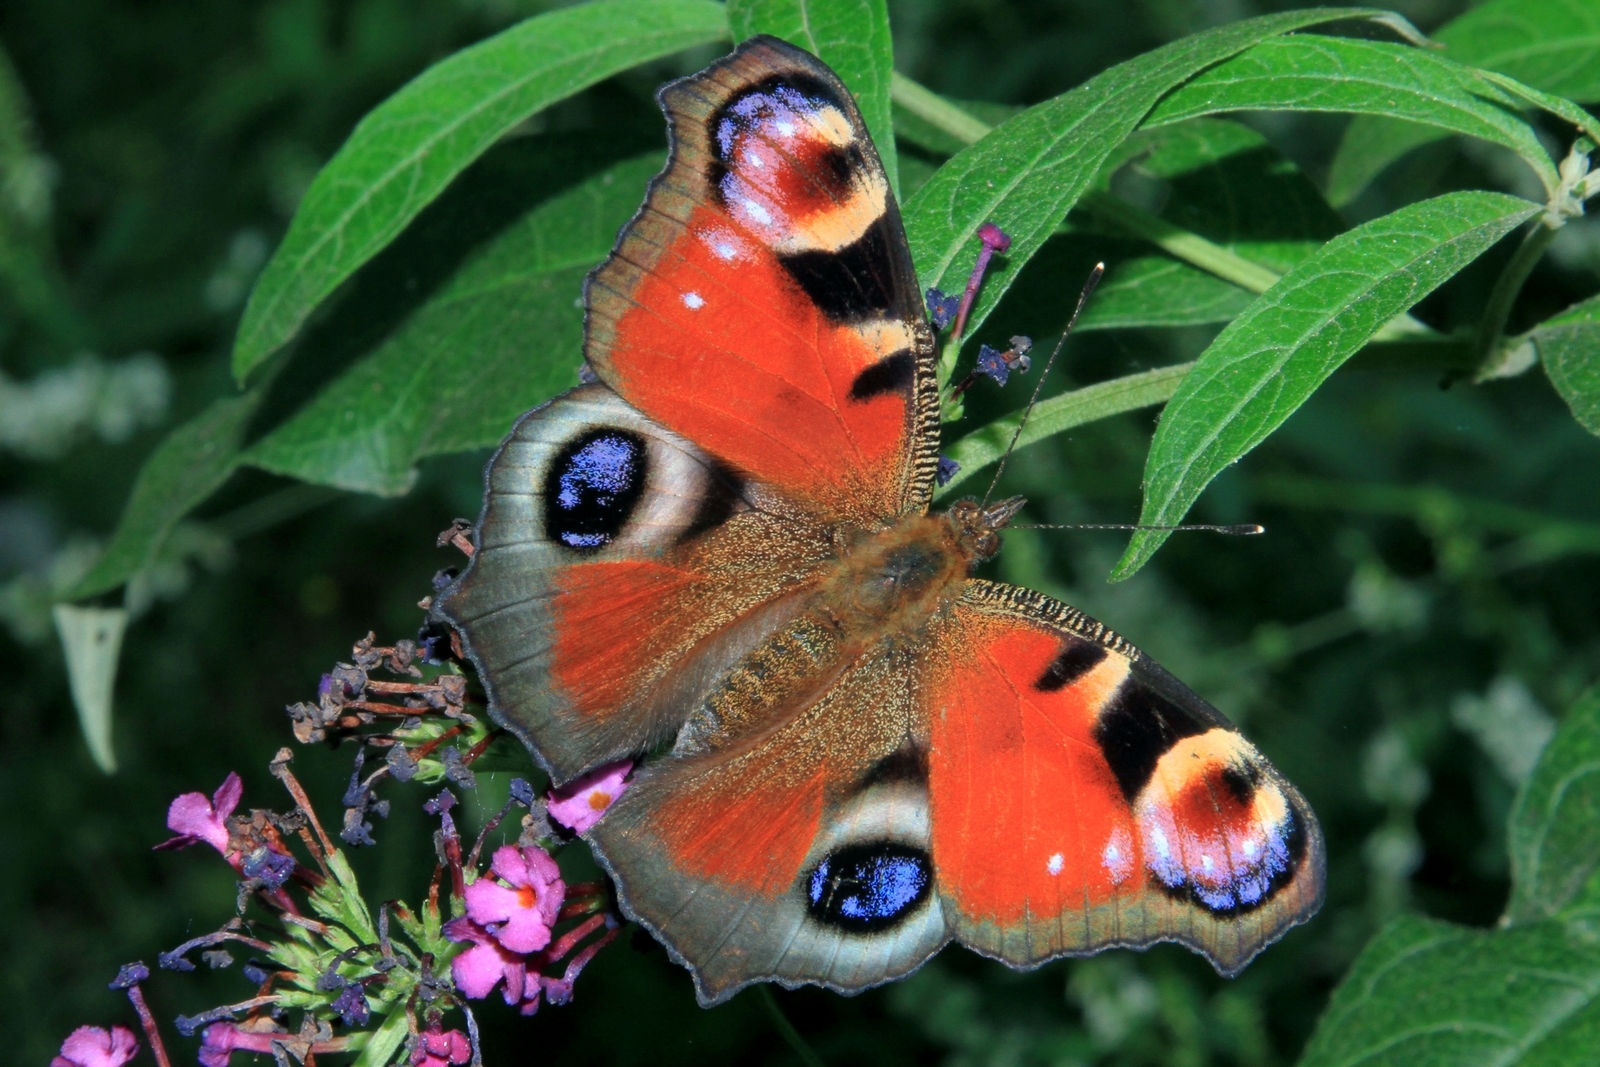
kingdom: Animalia
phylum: Arthropoda
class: Insecta
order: Lepidoptera
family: Nymphalidae
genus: Aglais
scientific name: Aglais io
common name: Peacock
